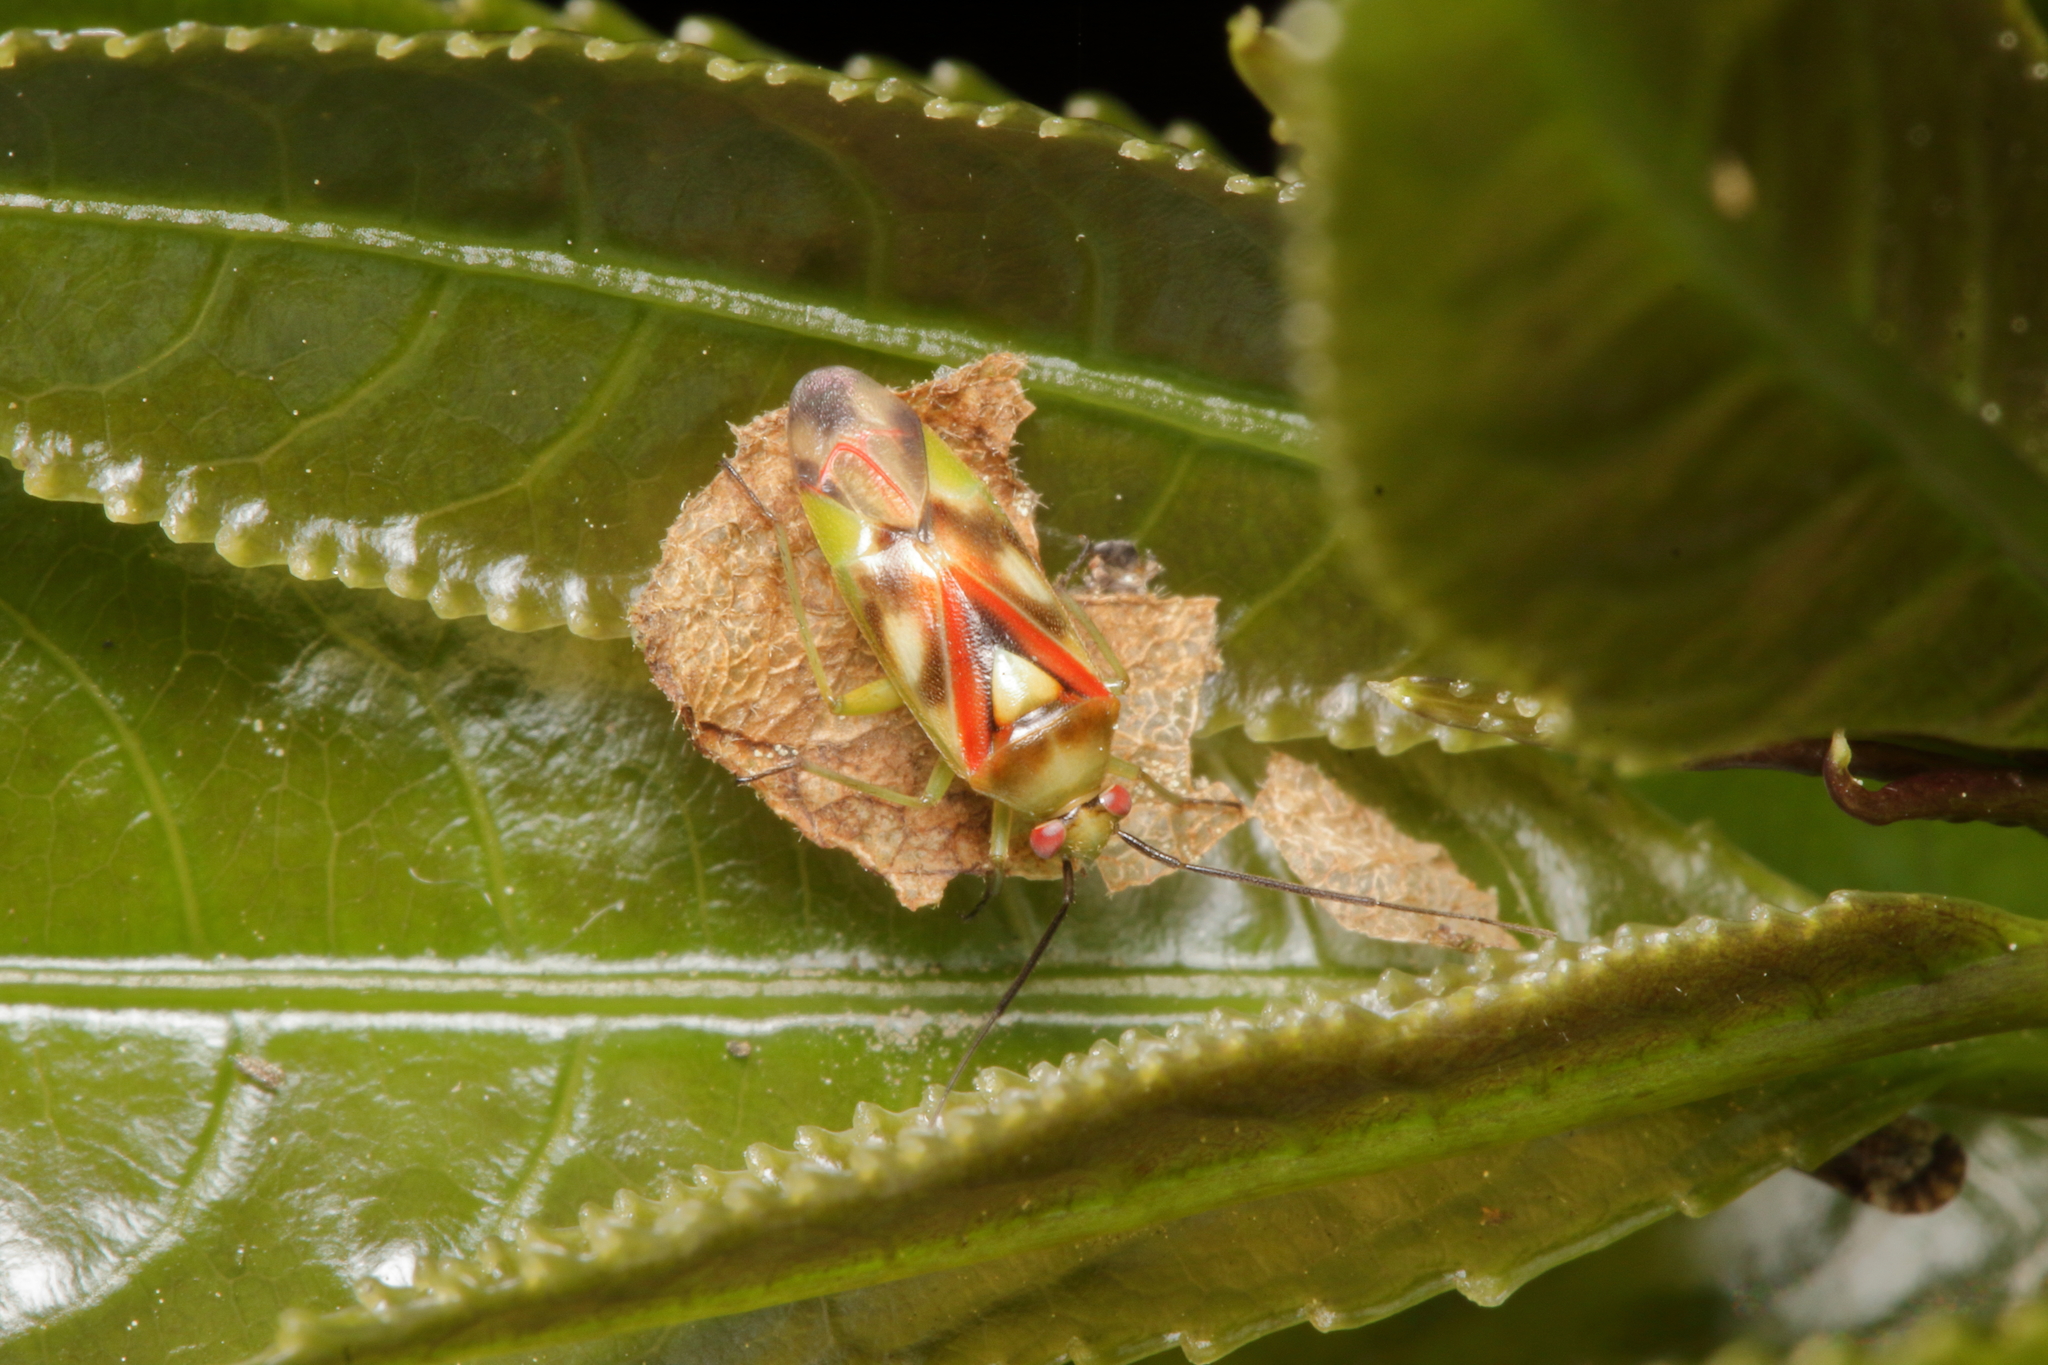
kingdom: Animalia
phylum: Arthropoda
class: Insecta
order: Hemiptera
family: Miridae
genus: Tuicoris
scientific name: Tuicoris excelsus
